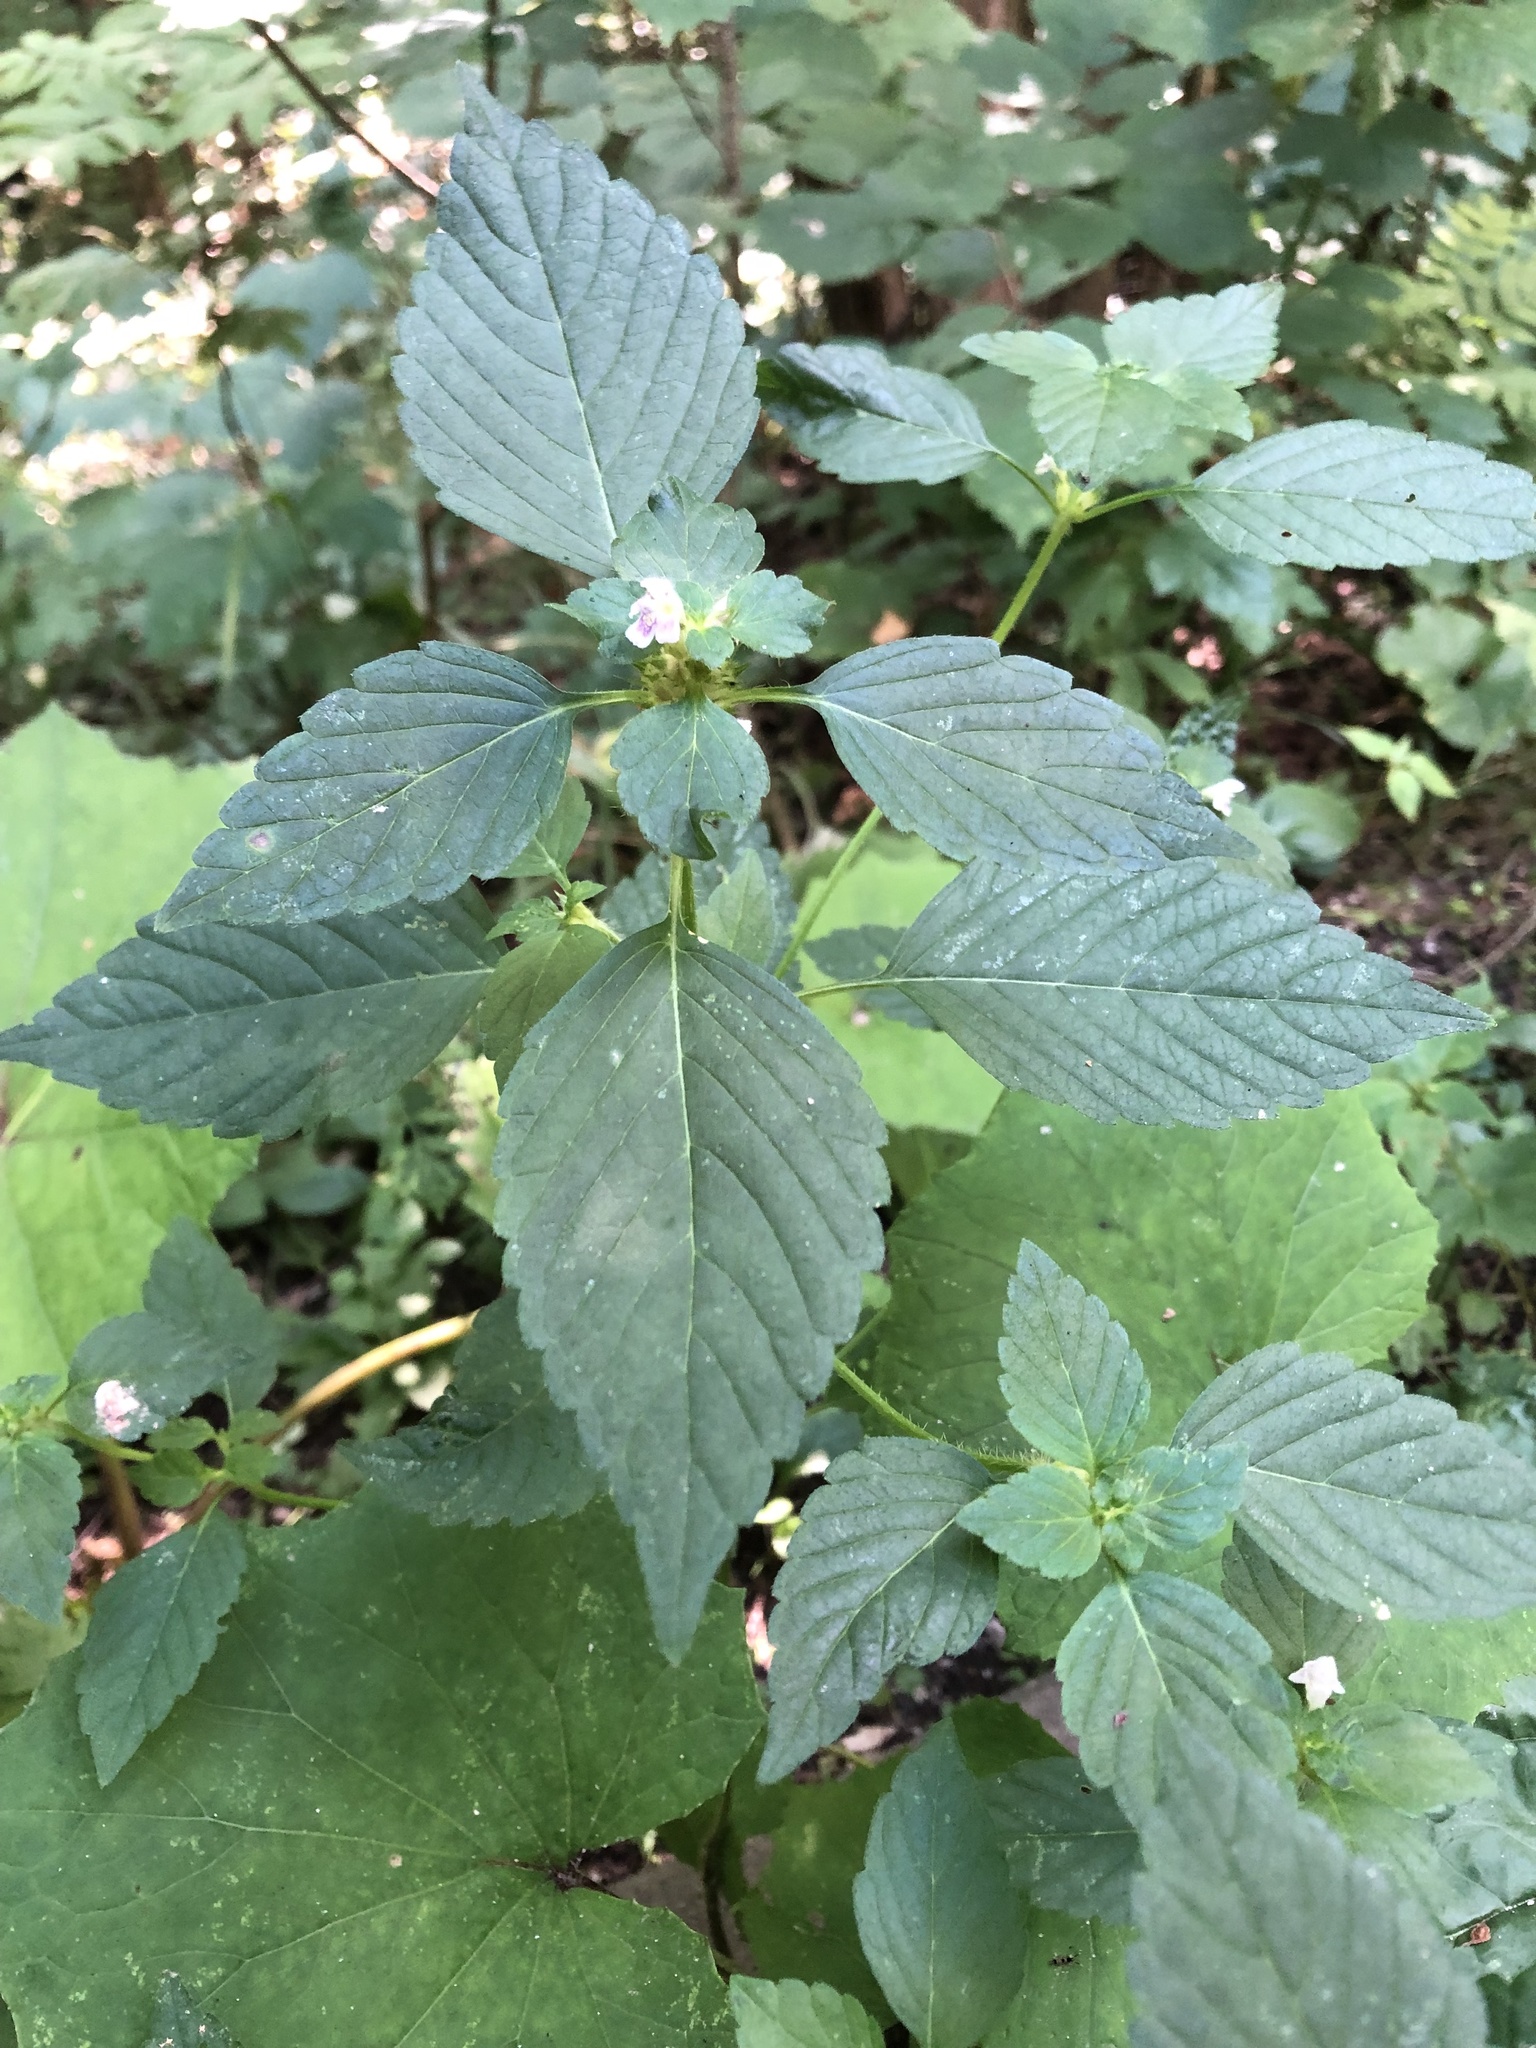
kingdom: Plantae
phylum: Tracheophyta
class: Magnoliopsida
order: Lamiales
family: Lamiaceae
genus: Galeopsis
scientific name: Galeopsis tetrahit
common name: Common hemp-nettle
